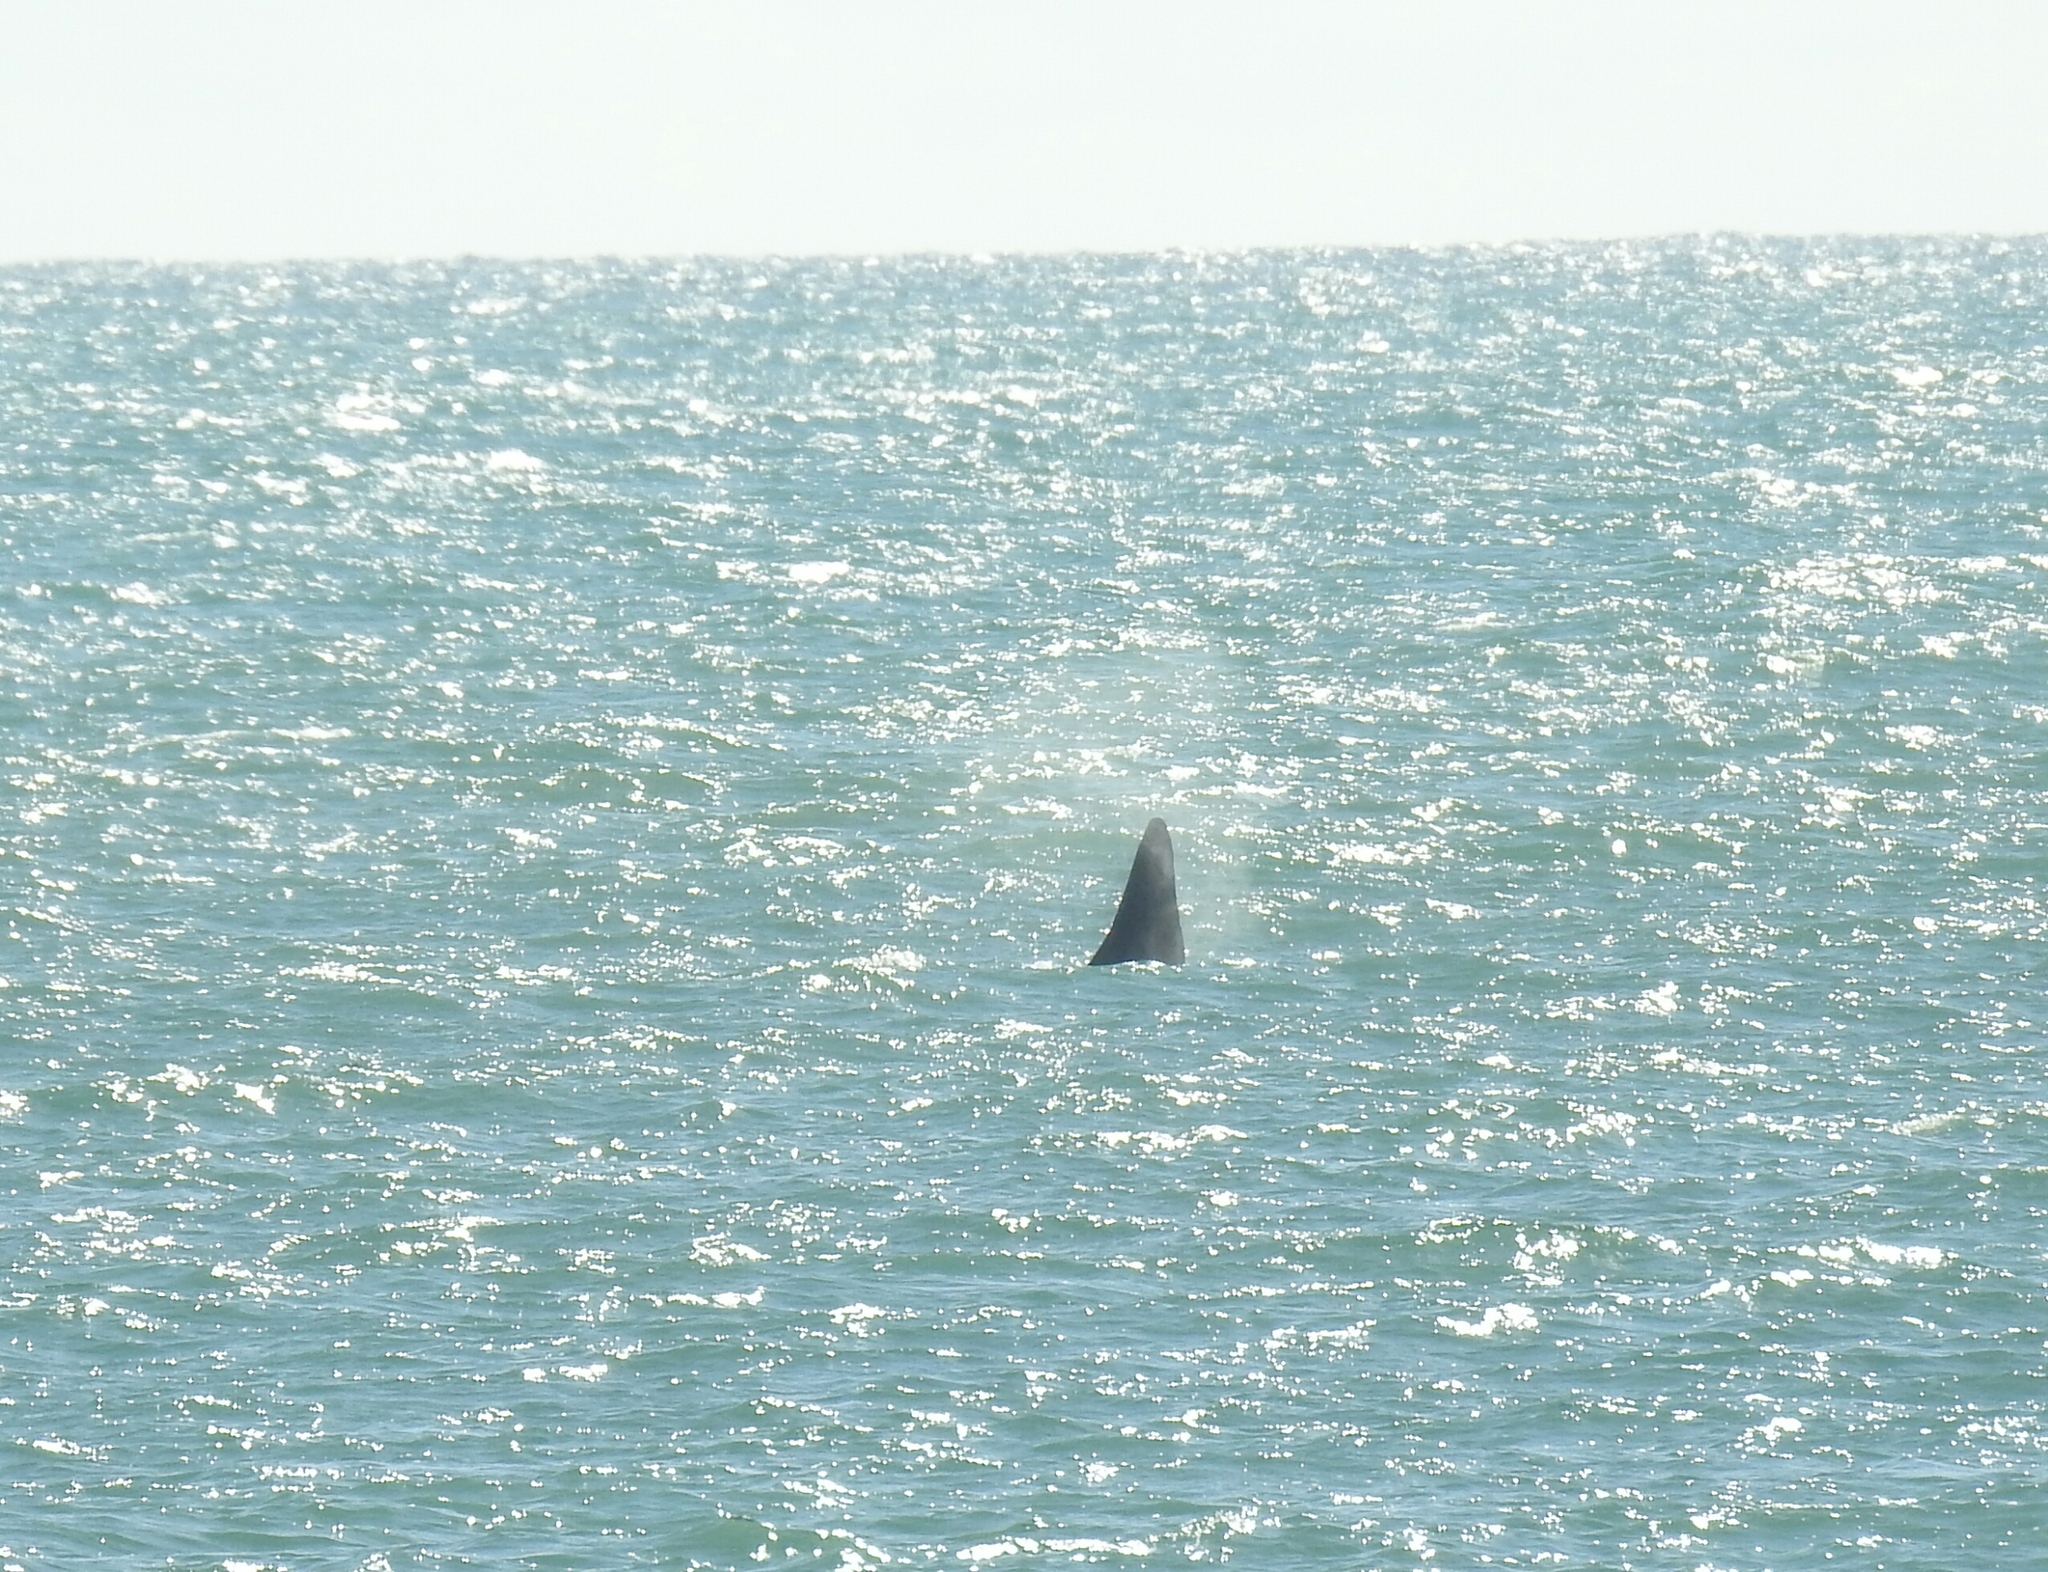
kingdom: Animalia
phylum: Chordata
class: Mammalia
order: Cetacea
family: Delphinidae
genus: Orcinus
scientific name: Orcinus orca
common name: Killer whale
